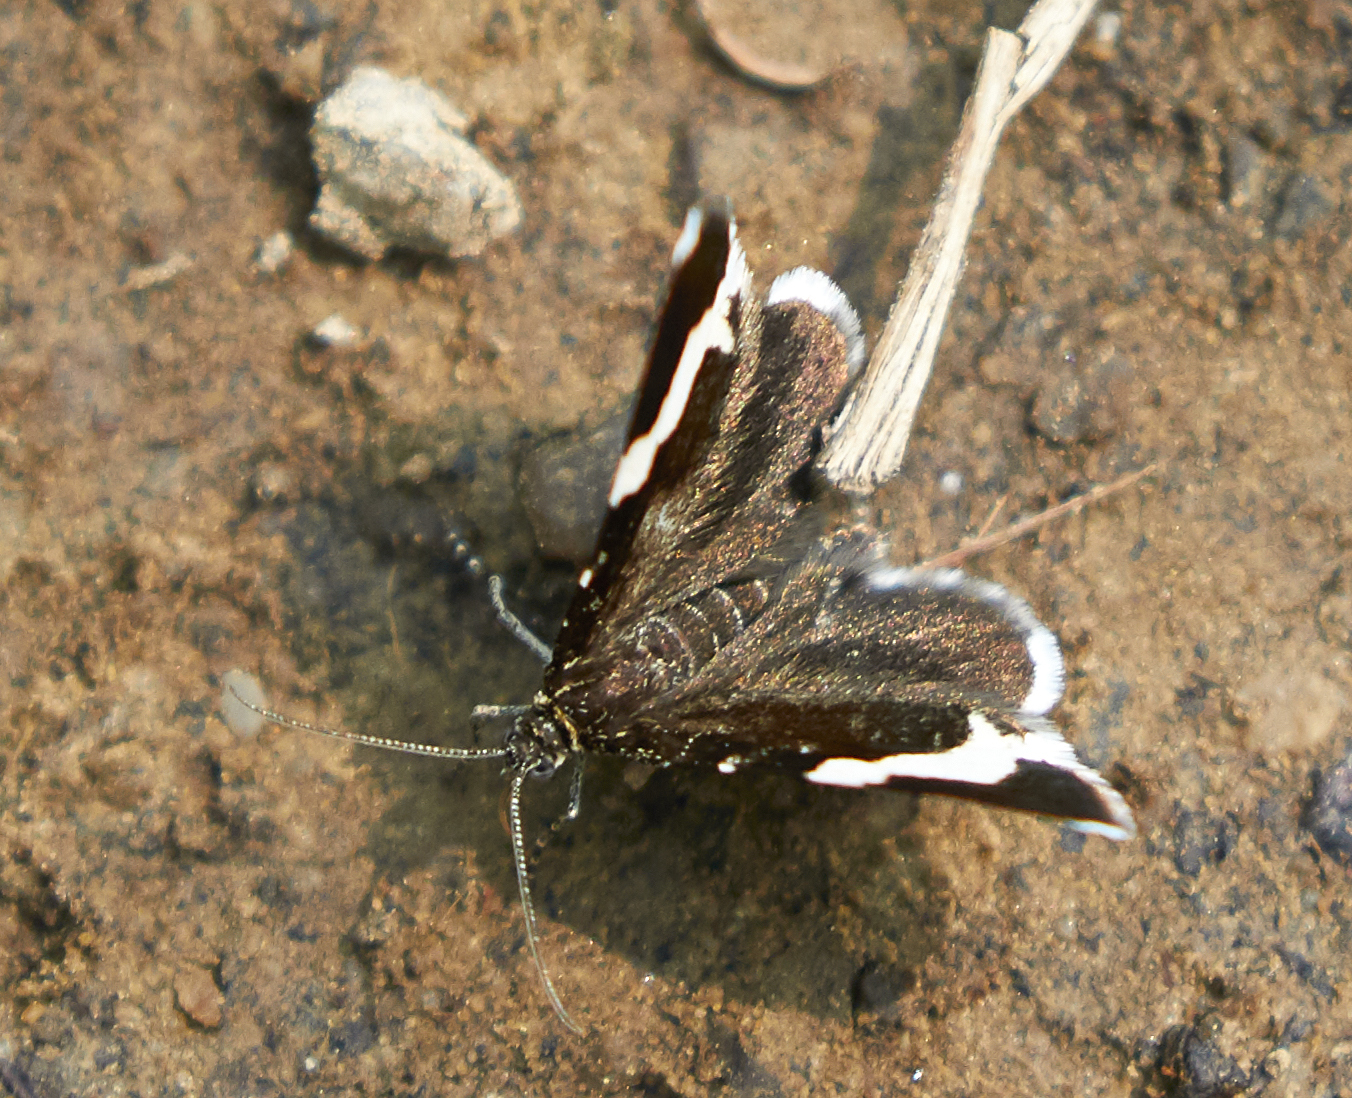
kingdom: Animalia
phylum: Arthropoda
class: Insecta
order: Lepidoptera
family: Geometridae
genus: Trichodezia
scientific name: Trichodezia albovittata
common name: White striped black
